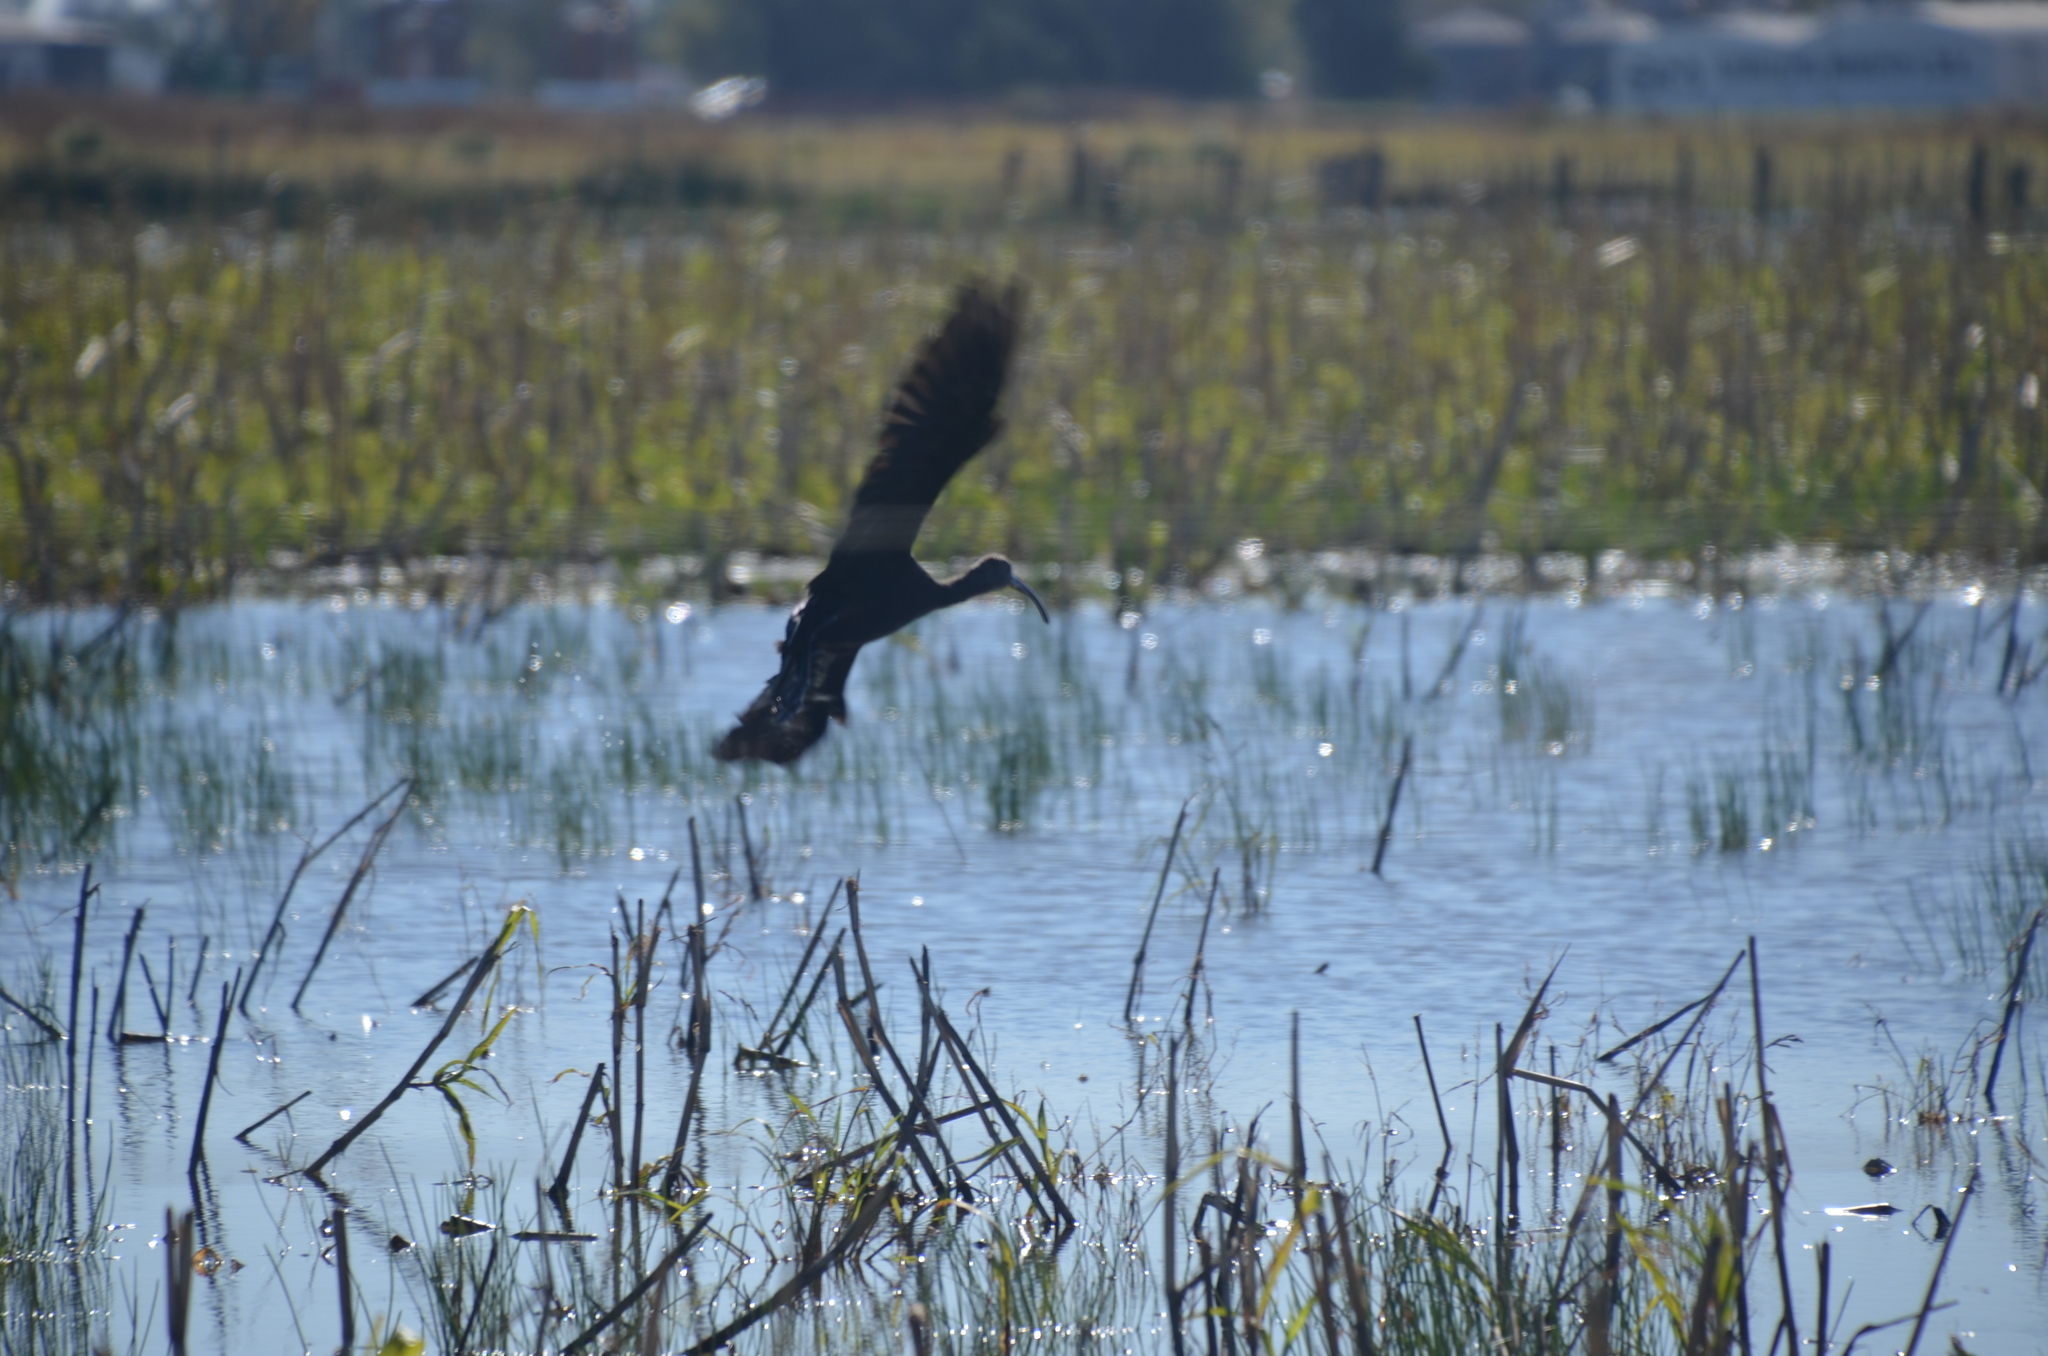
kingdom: Animalia
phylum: Chordata
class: Aves
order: Pelecaniformes
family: Threskiornithidae
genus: Plegadis
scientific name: Plegadis chihi
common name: White-faced ibis
